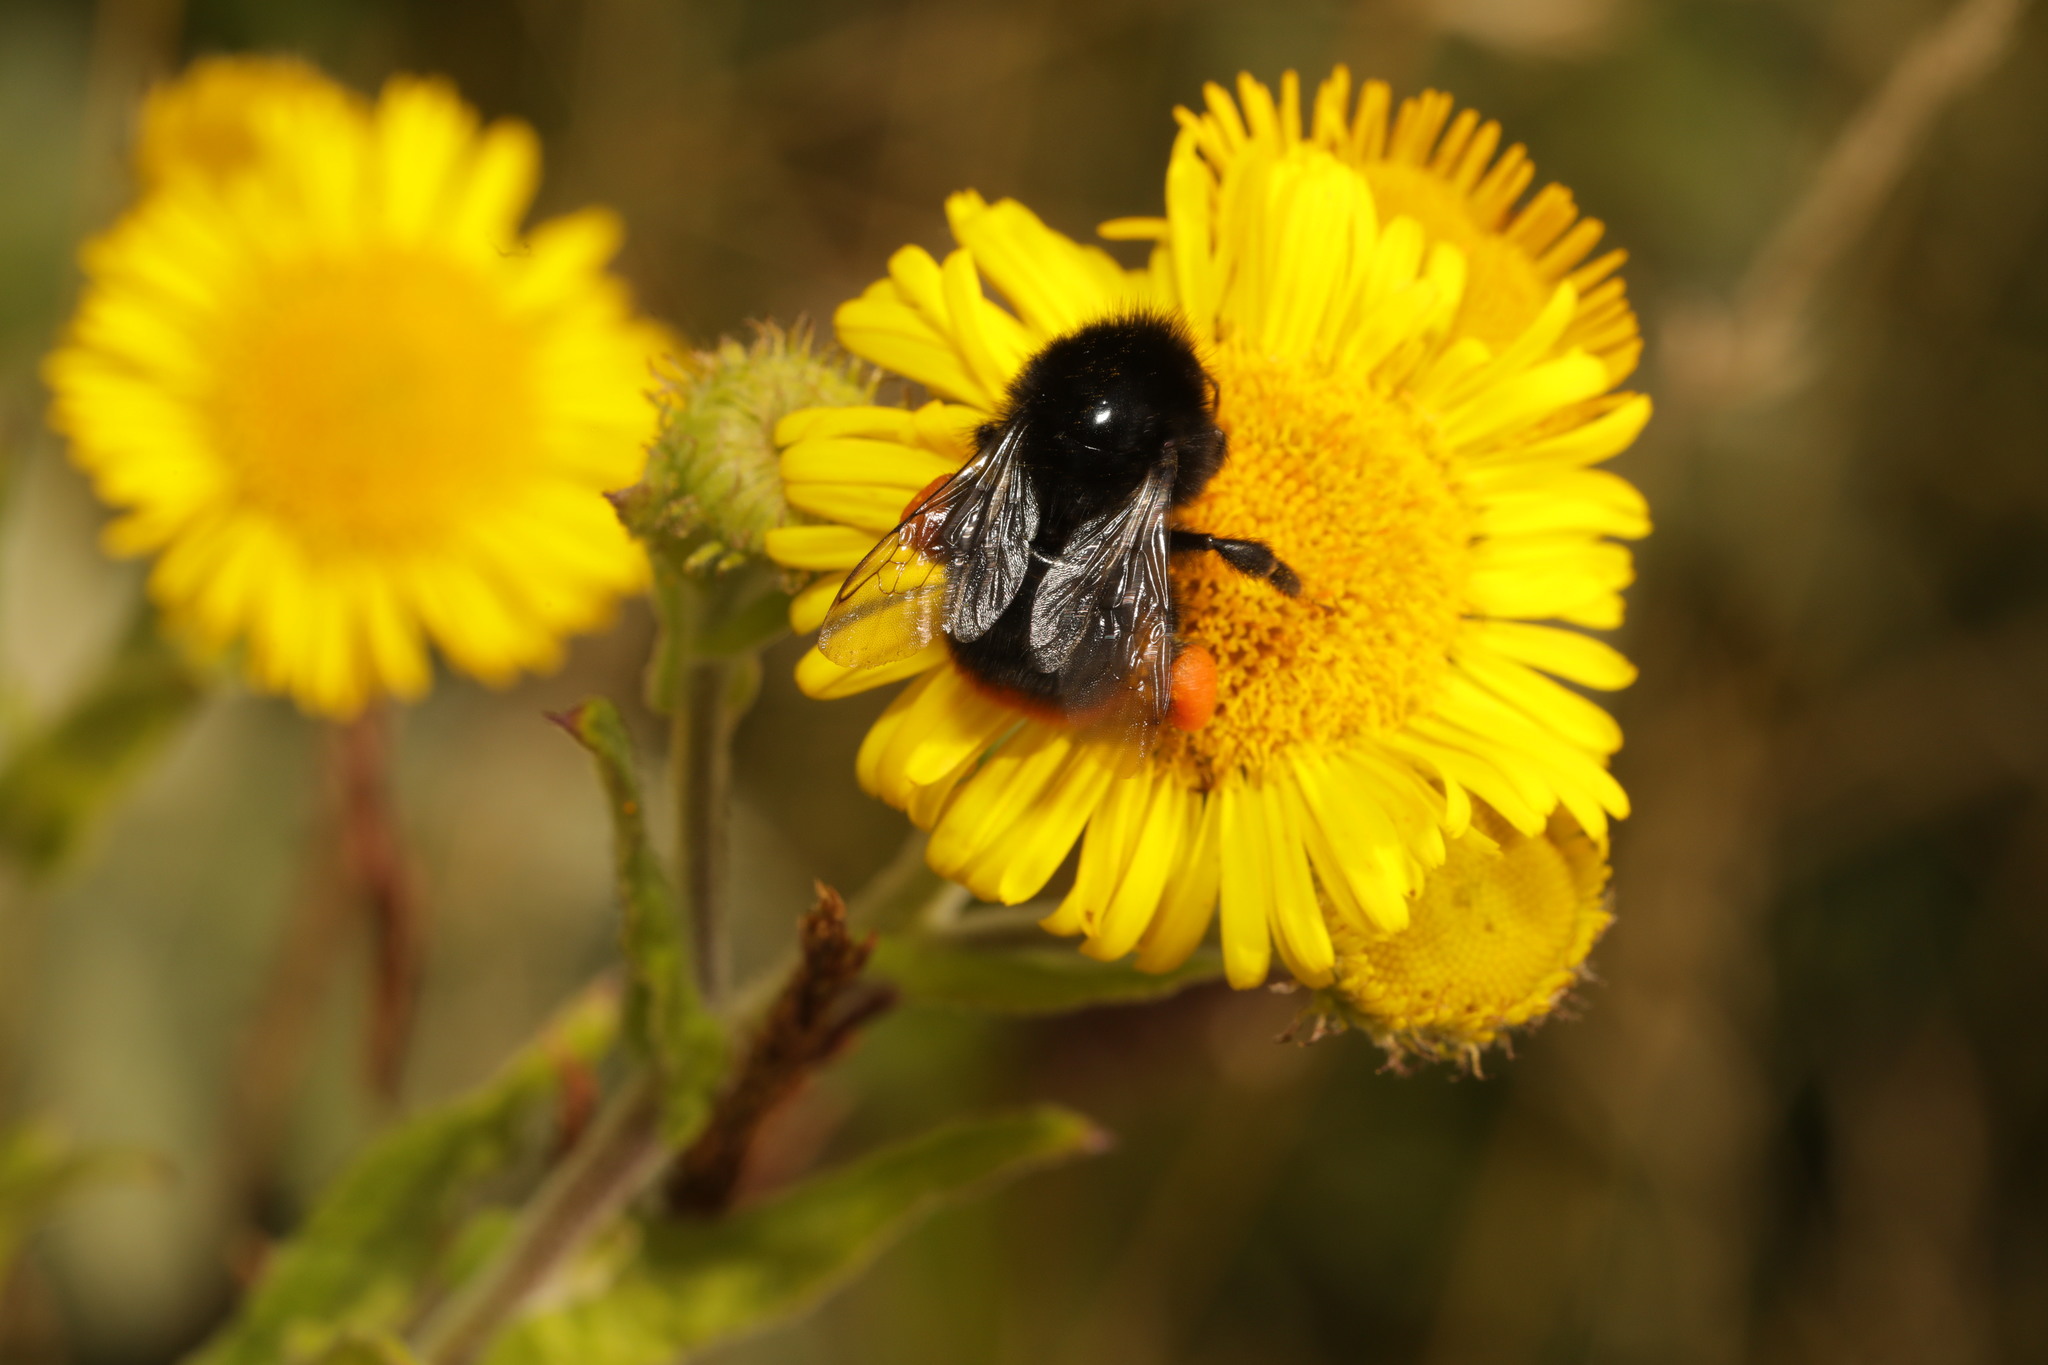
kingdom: Animalia
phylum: Arthropoda
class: Insecta
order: Hymenoptera
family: Apidae
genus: Bombus
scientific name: Bombus lapidarius
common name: Large red-tailed humble-bee
